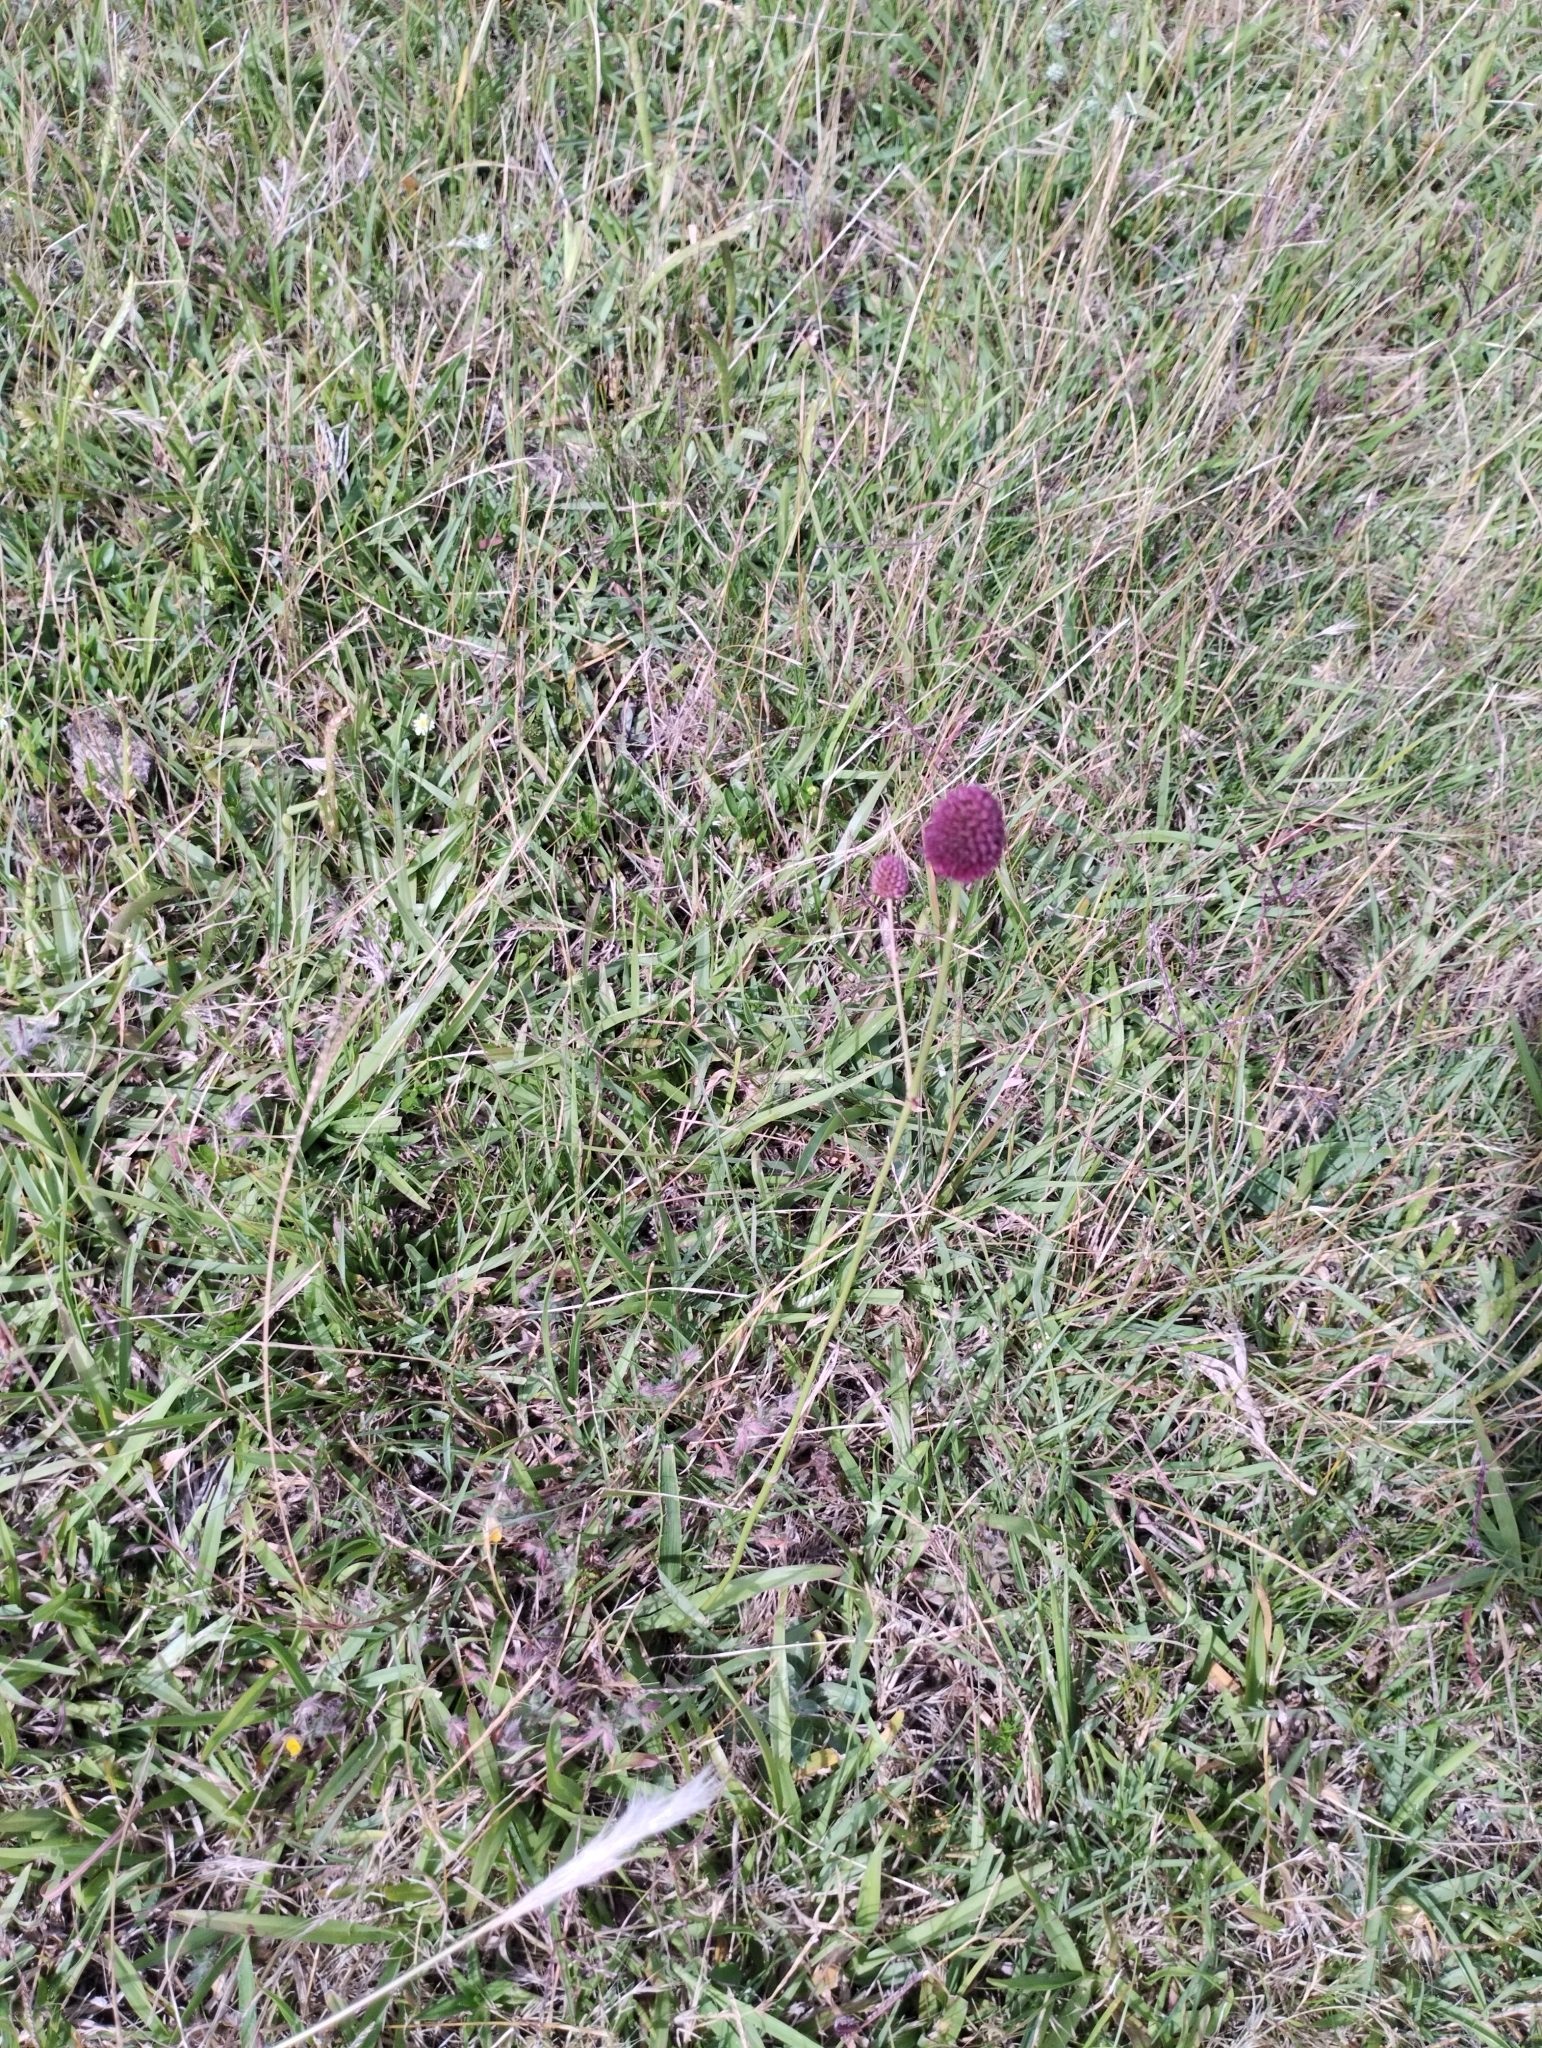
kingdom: Plantae
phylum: Tracheophyta
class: Magnoliopsida
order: Apiales
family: Apiaceae
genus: Eryngium
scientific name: Eryngium sanguisorba
